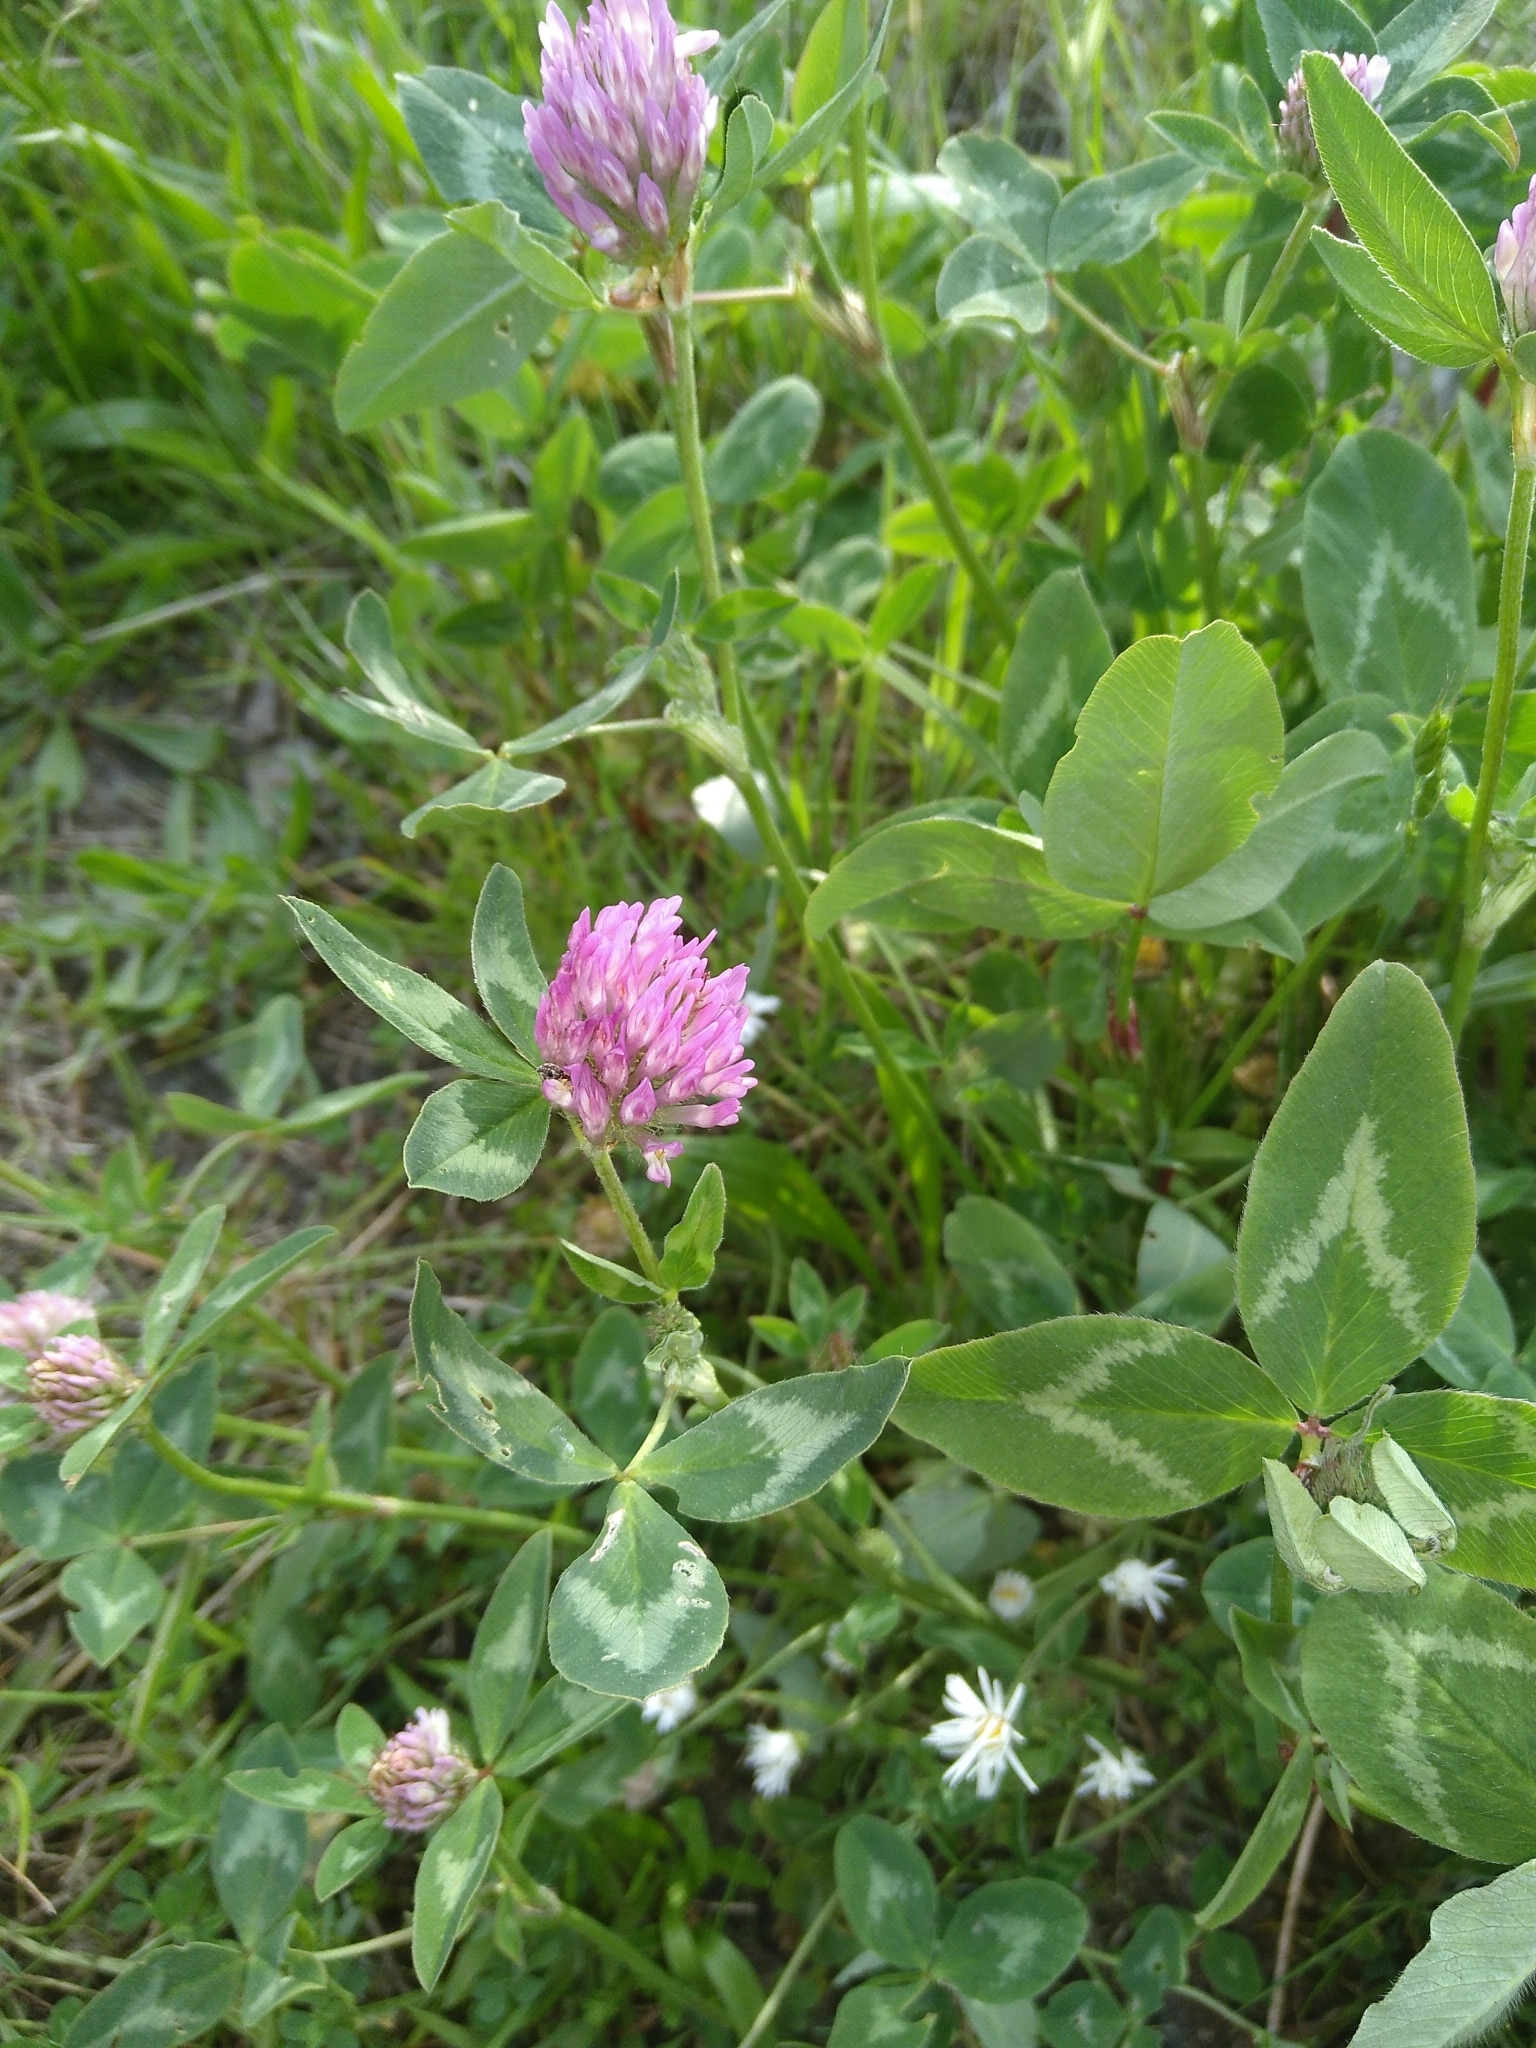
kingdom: Plantae
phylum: Tracheophyta
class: Magnoliopsida
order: Fabales
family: Fabaceae
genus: Trifolium
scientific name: Trifolium pratense
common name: Red clover
